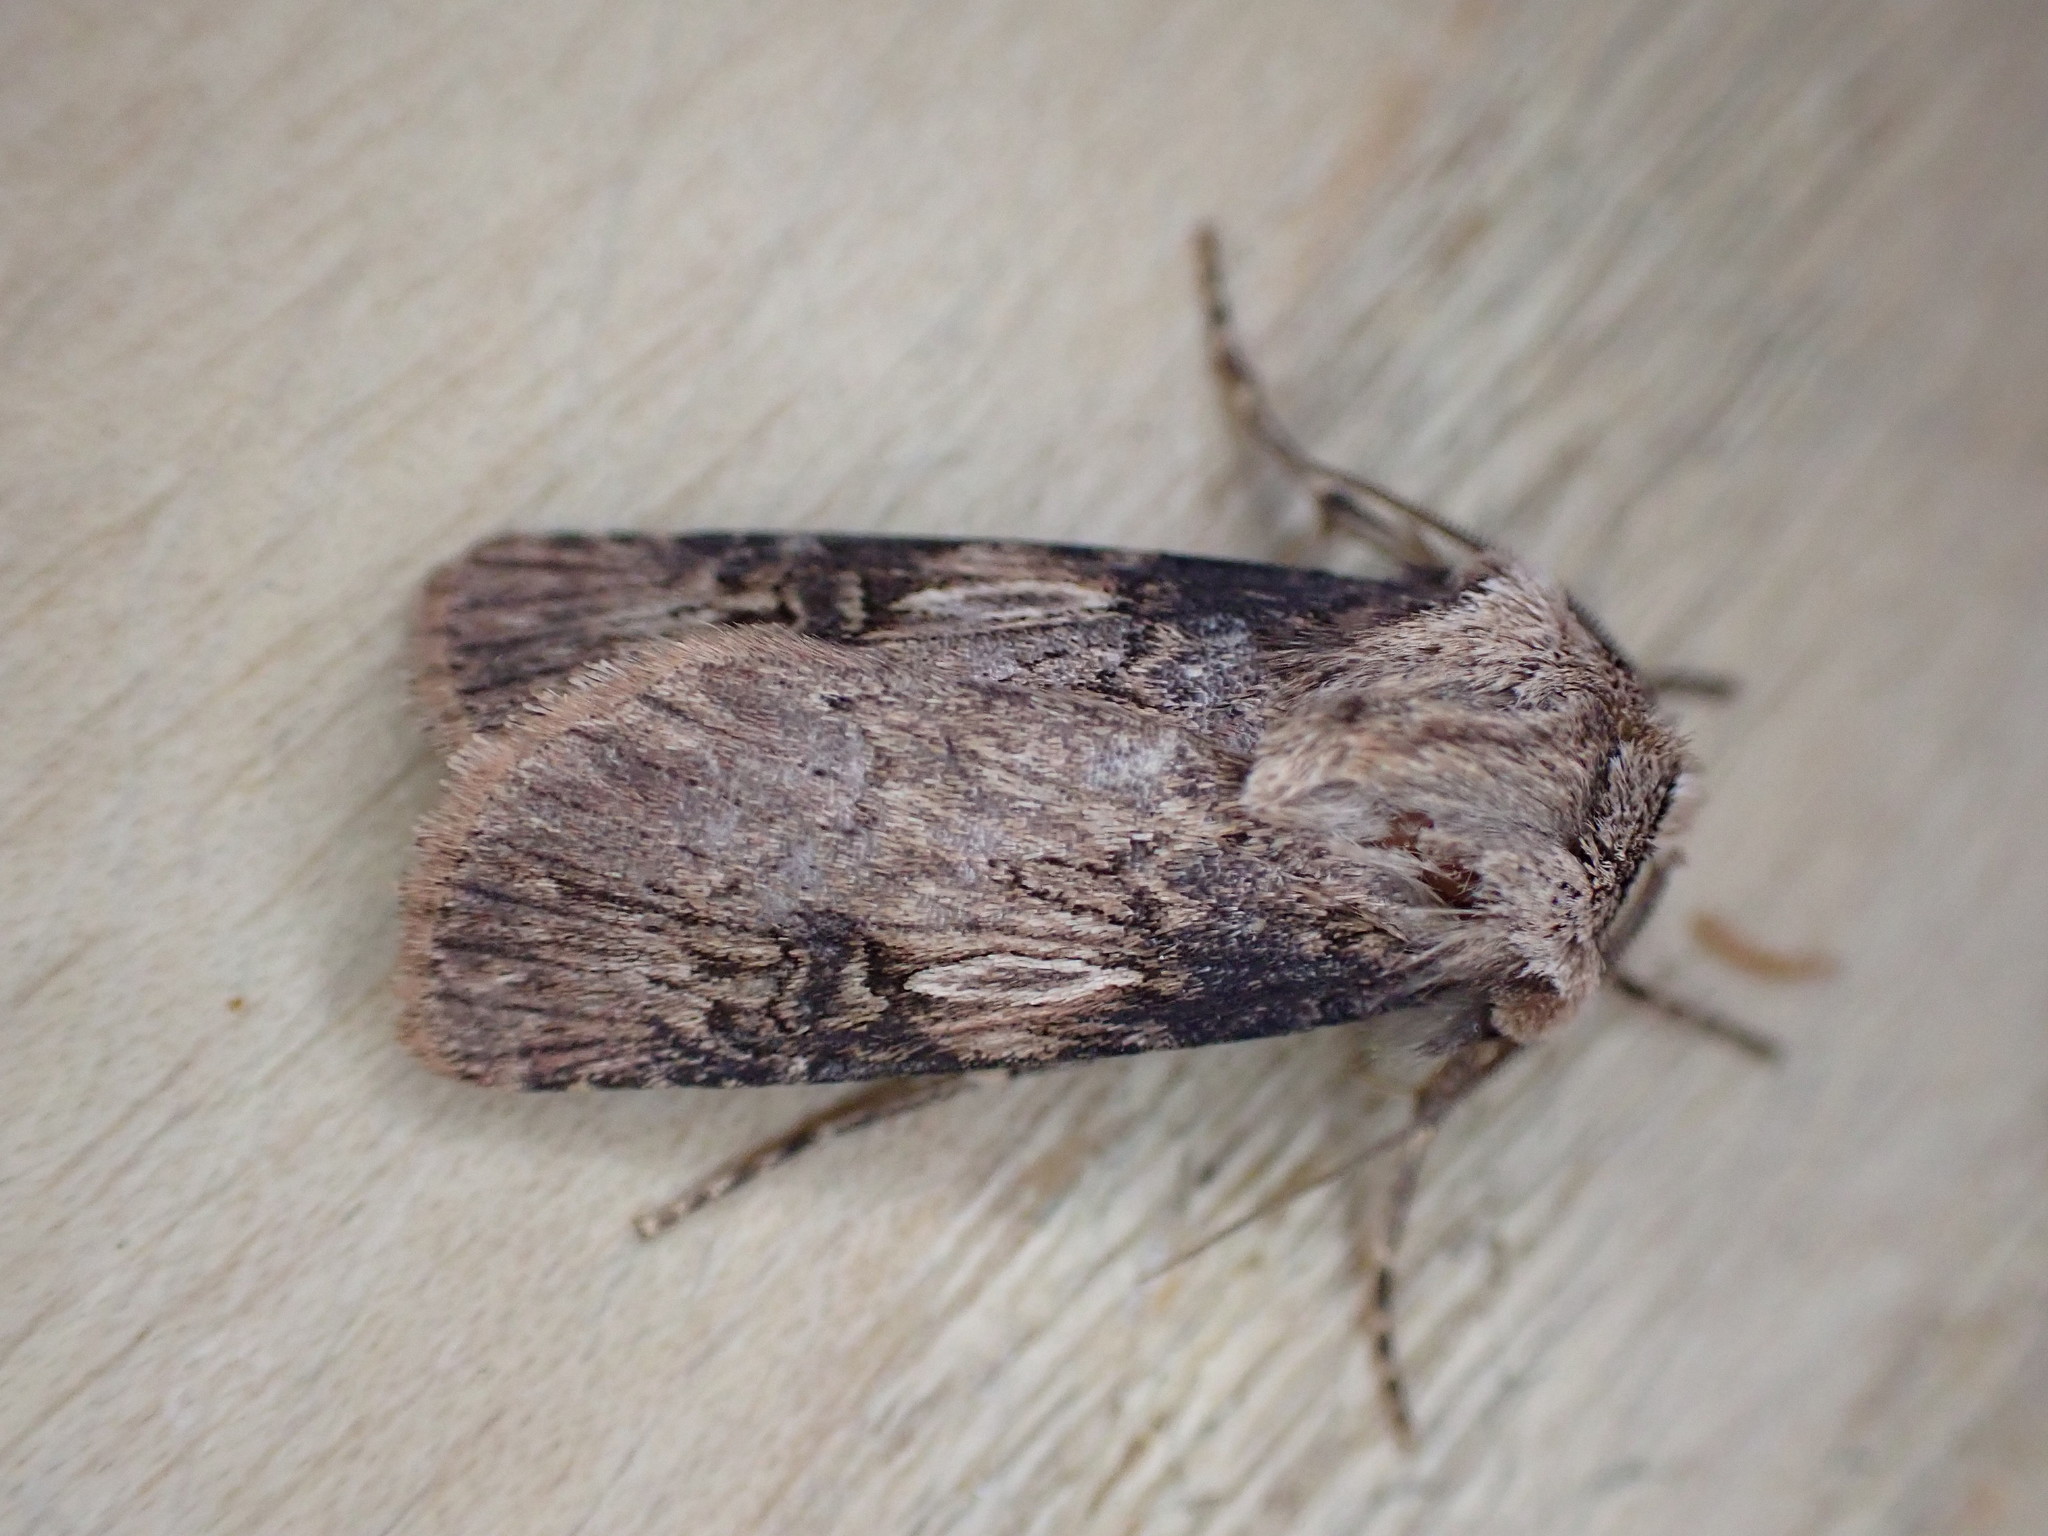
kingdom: Animalia
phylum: Arthropoda
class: Insecta
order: Lepidoptera
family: Noctuidae
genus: Agrotis
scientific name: Agrotis puta
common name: Shuttle-shaped dart
